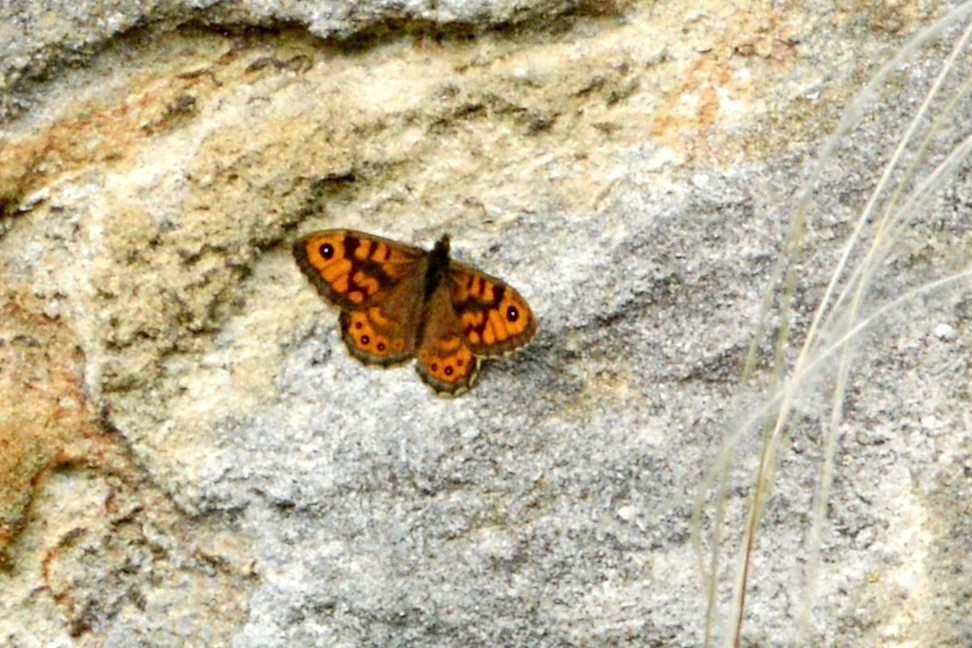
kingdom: Animalia
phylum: Arthropoda
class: Insecta
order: Lepidoptera
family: Nymphalidae
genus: Pararge
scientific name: Pararge Lasiommata megera
